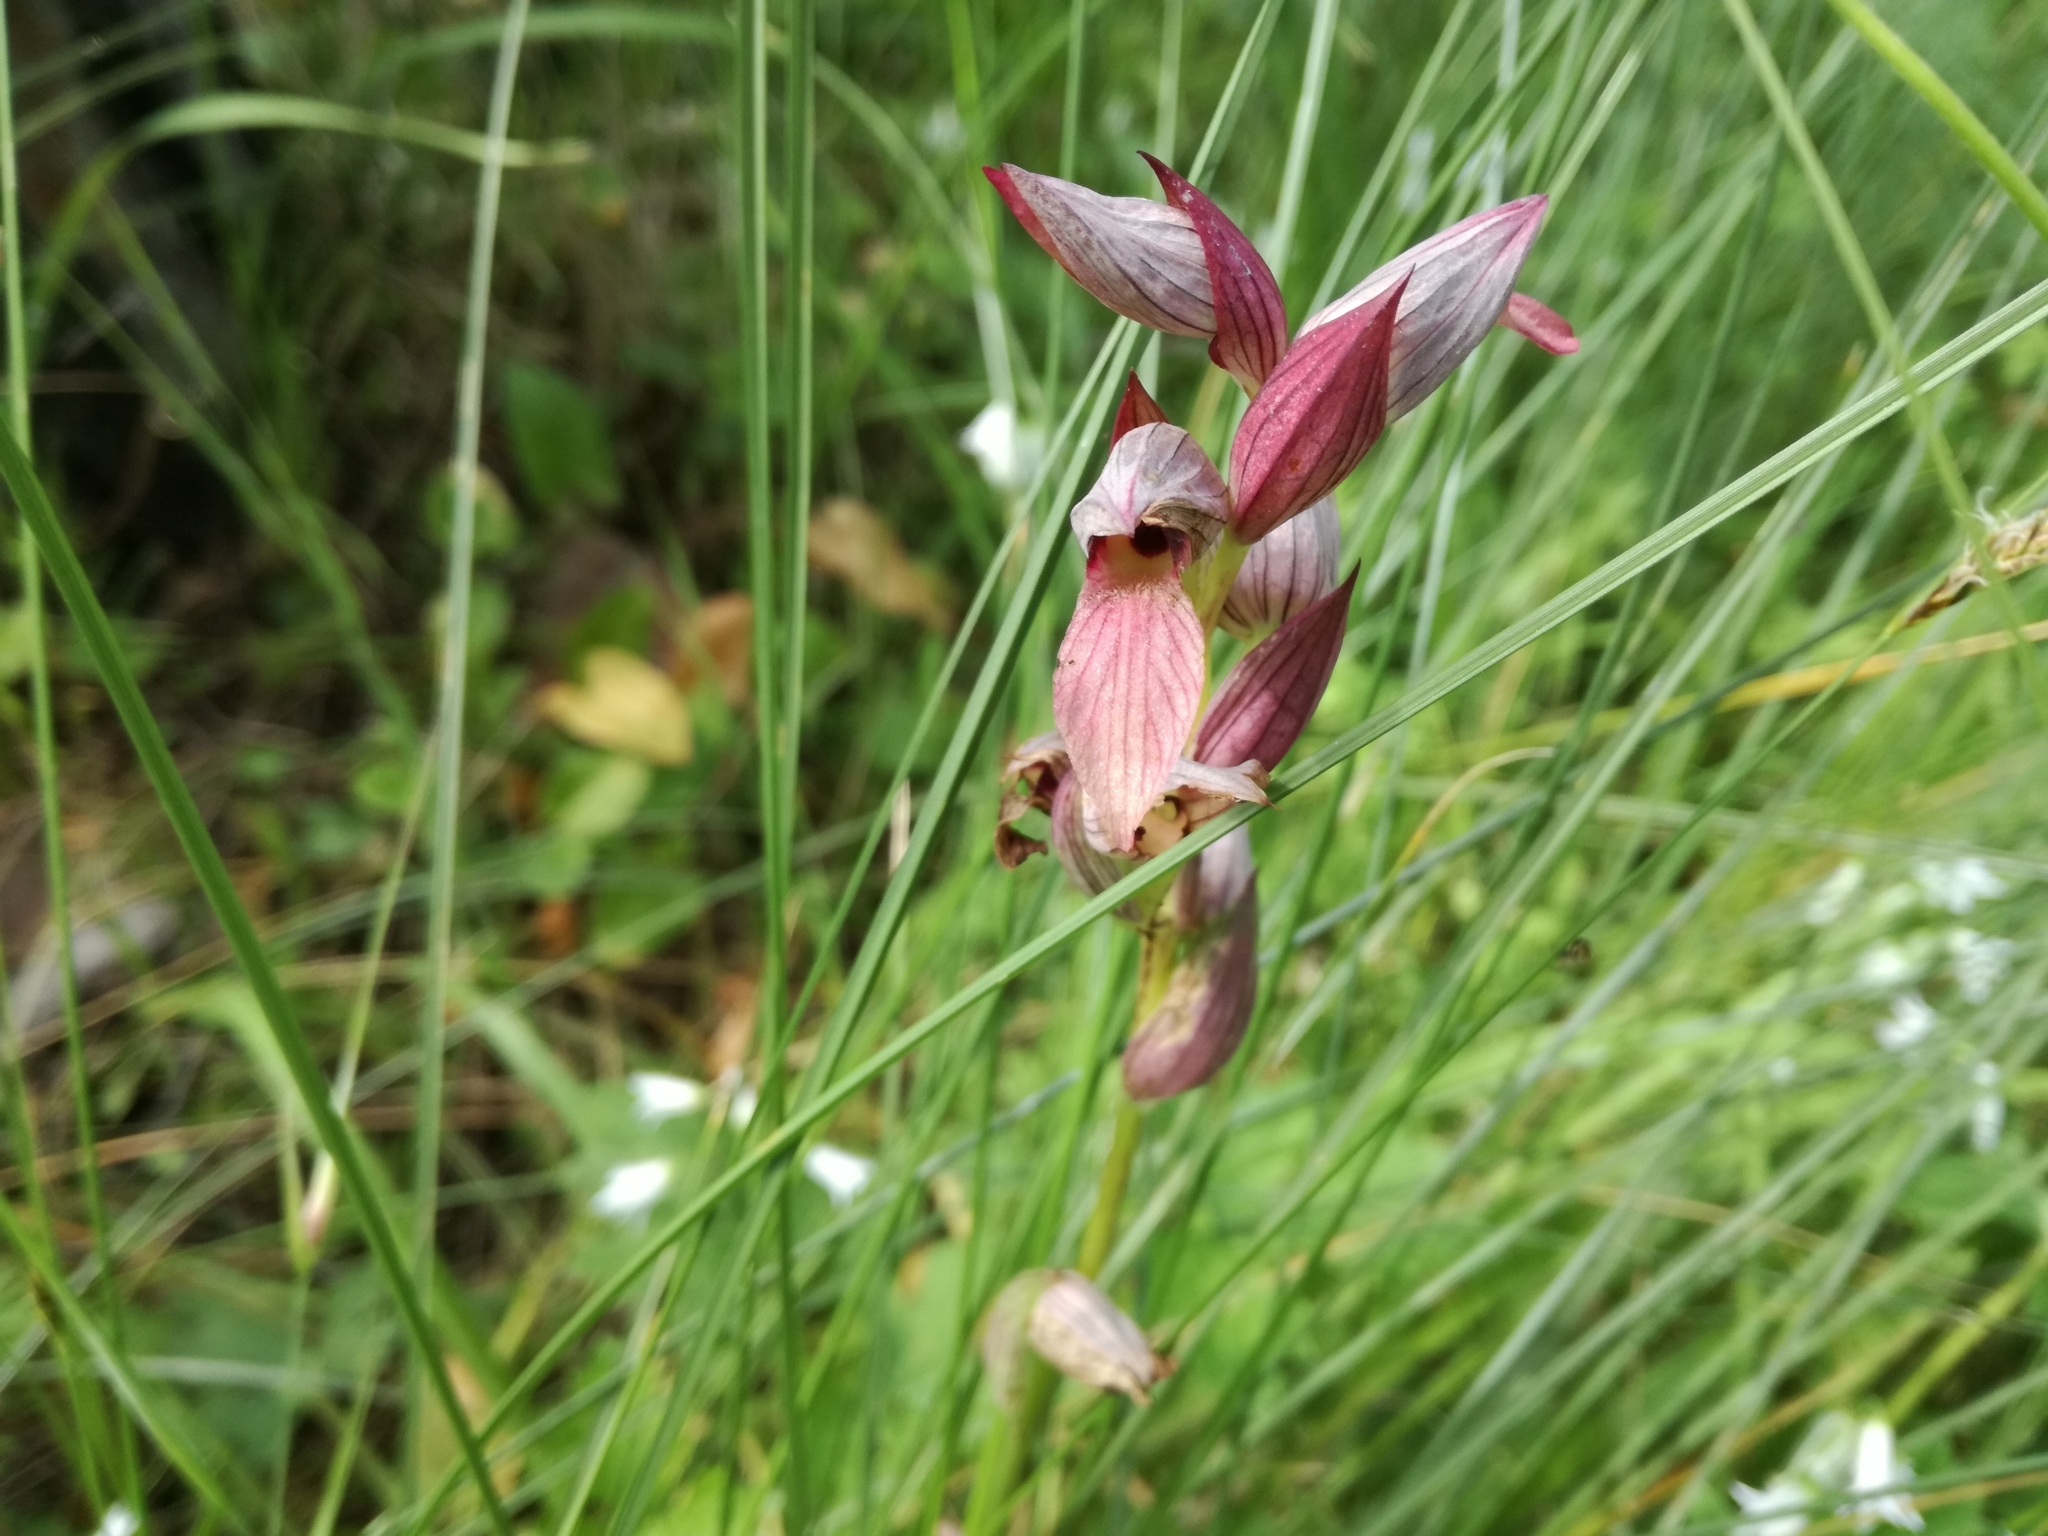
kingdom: Plantae
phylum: Tracheophyta
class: Liliopsida
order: Asparagales
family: Orchidaceae
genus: Serapias
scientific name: Serapias lingua
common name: Tongue-orchid
